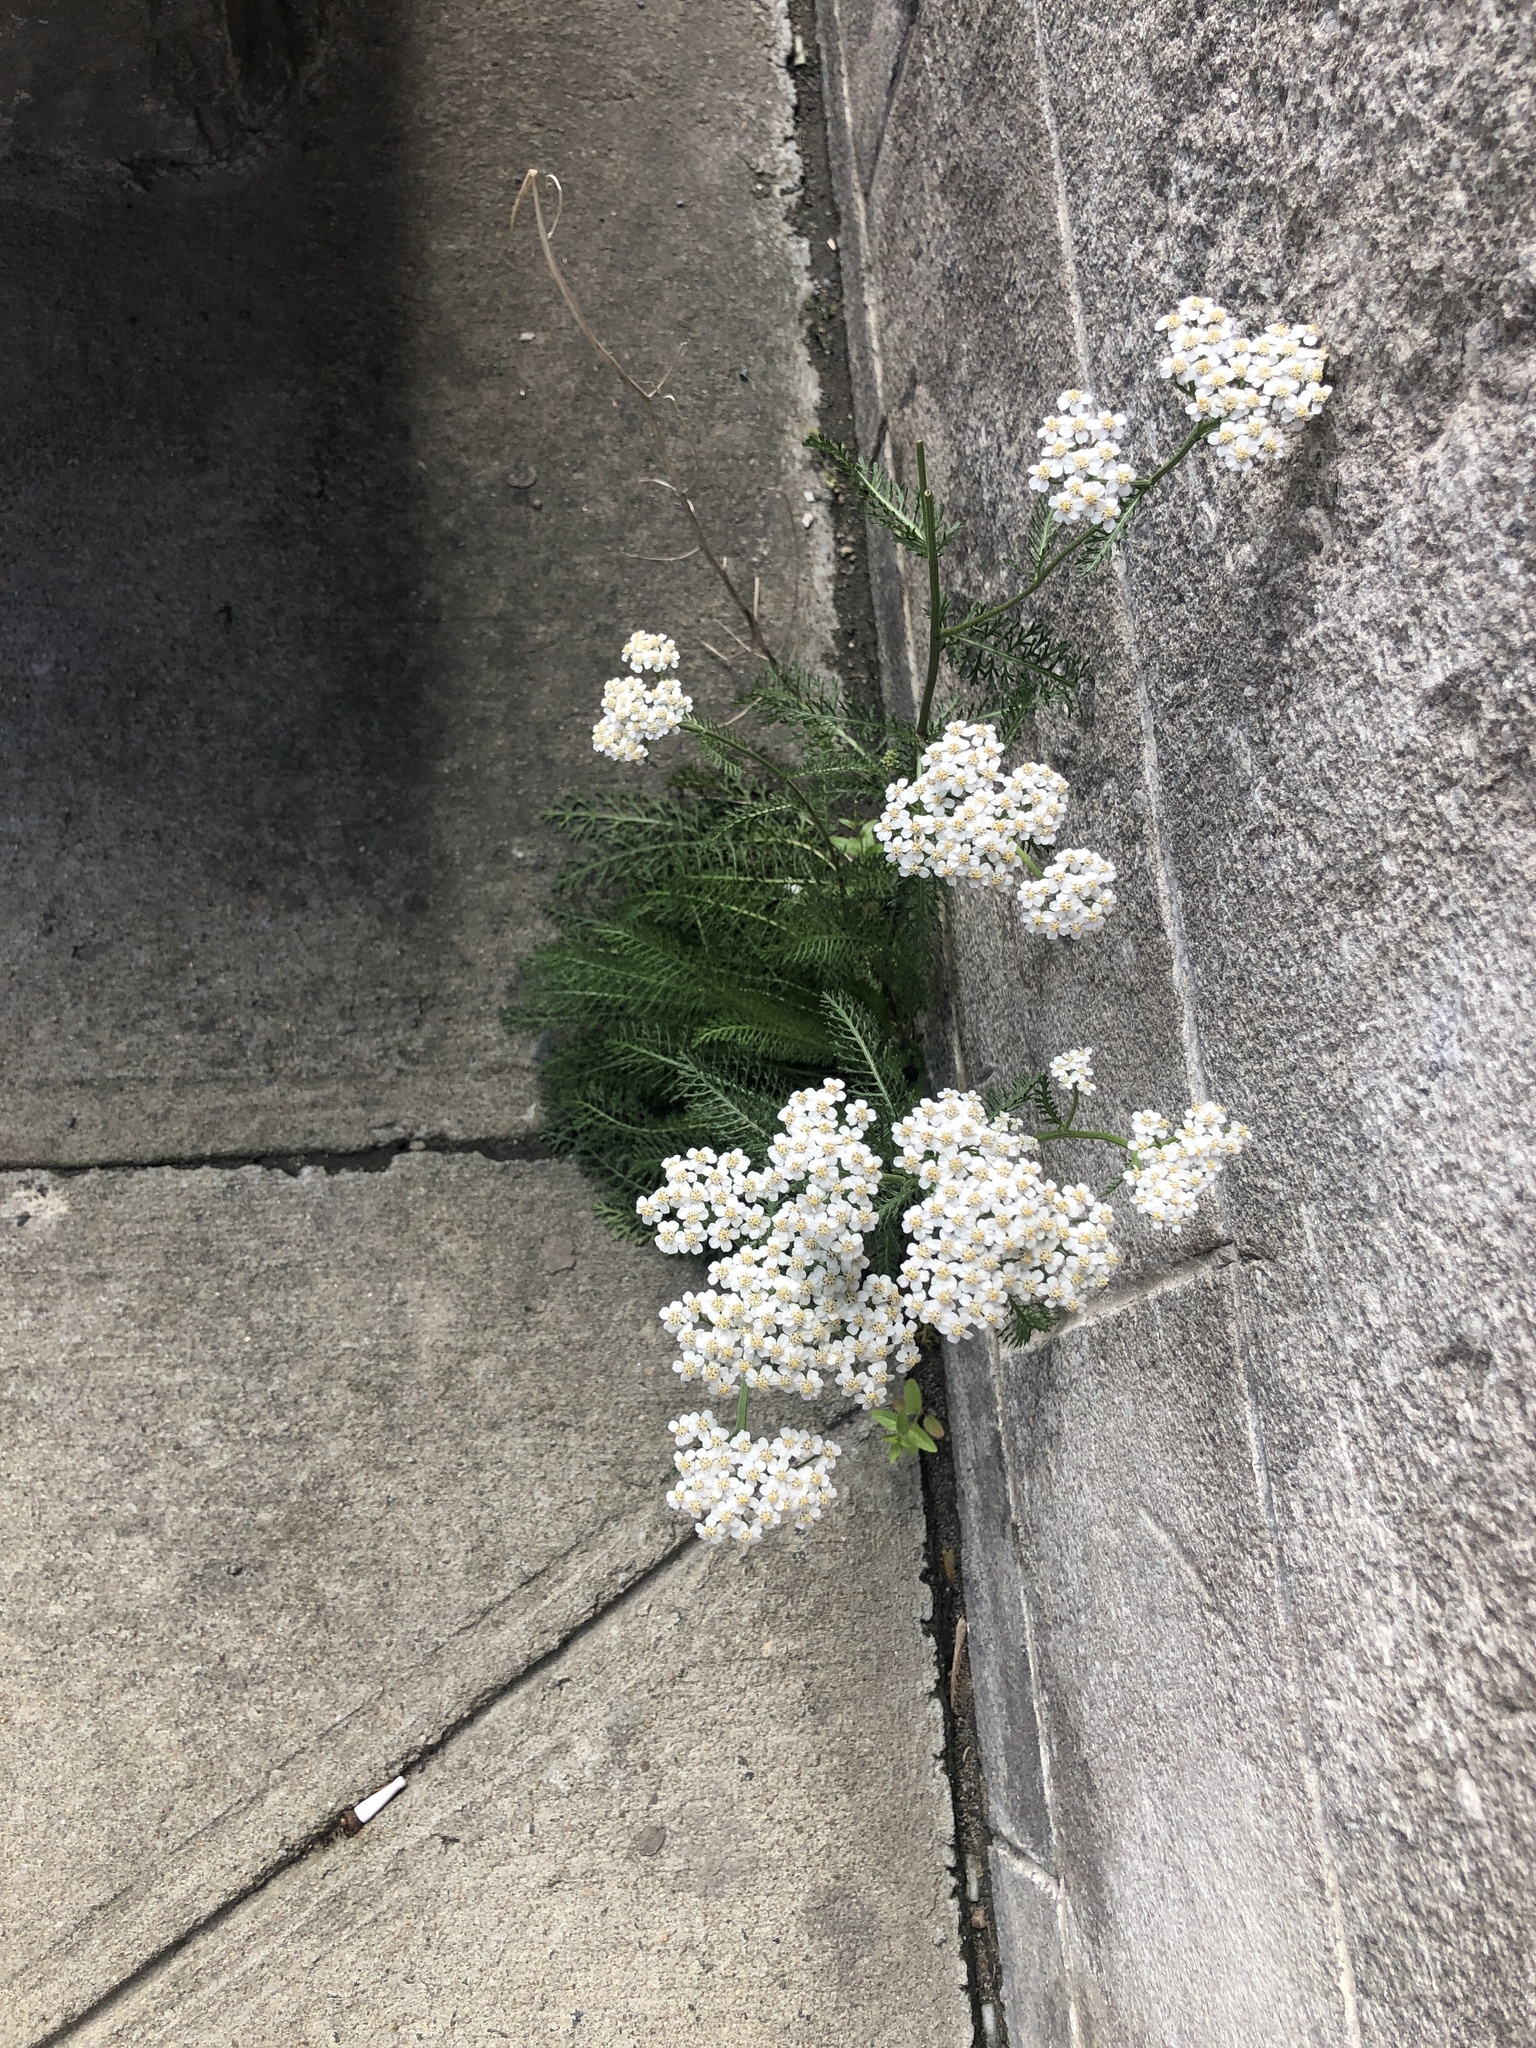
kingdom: Plantae
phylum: Tracheophyta
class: Magnoliopsida
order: Asterales
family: Asteraceae
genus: Achillea
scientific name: Achillea millefolium
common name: Yarrow
